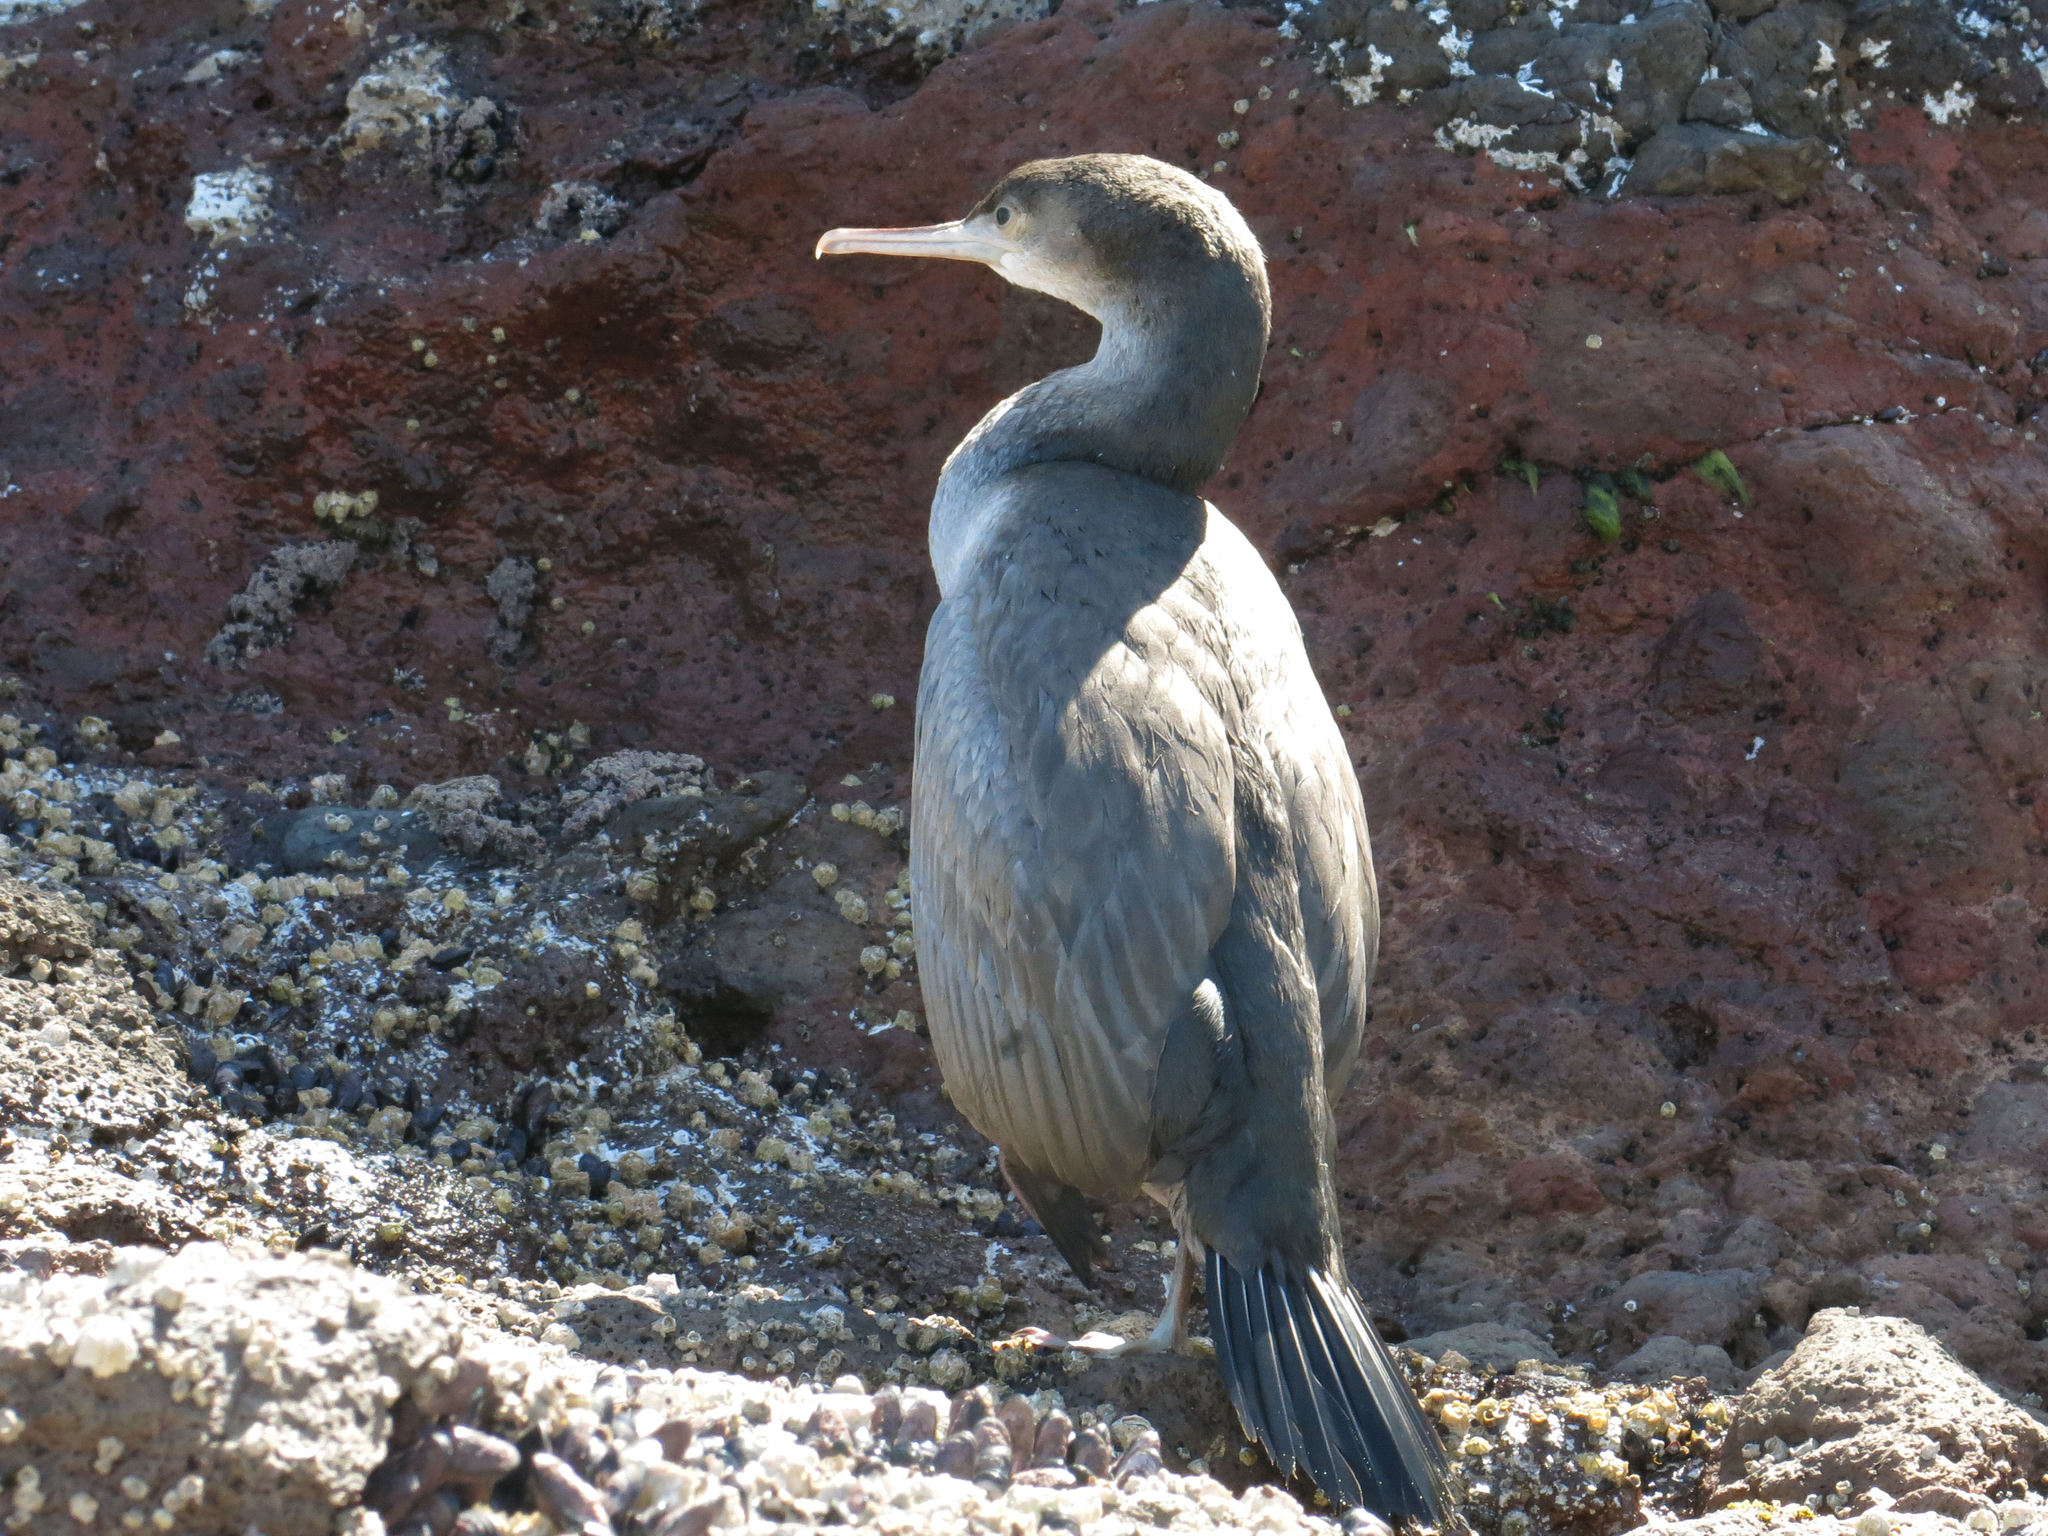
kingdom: Animalia
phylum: Chordata
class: Aves
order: Suliformes
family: Phalacrocoracidae
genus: Phalacrocorax
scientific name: Phalacrocorax punctatus
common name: Spotted shag
